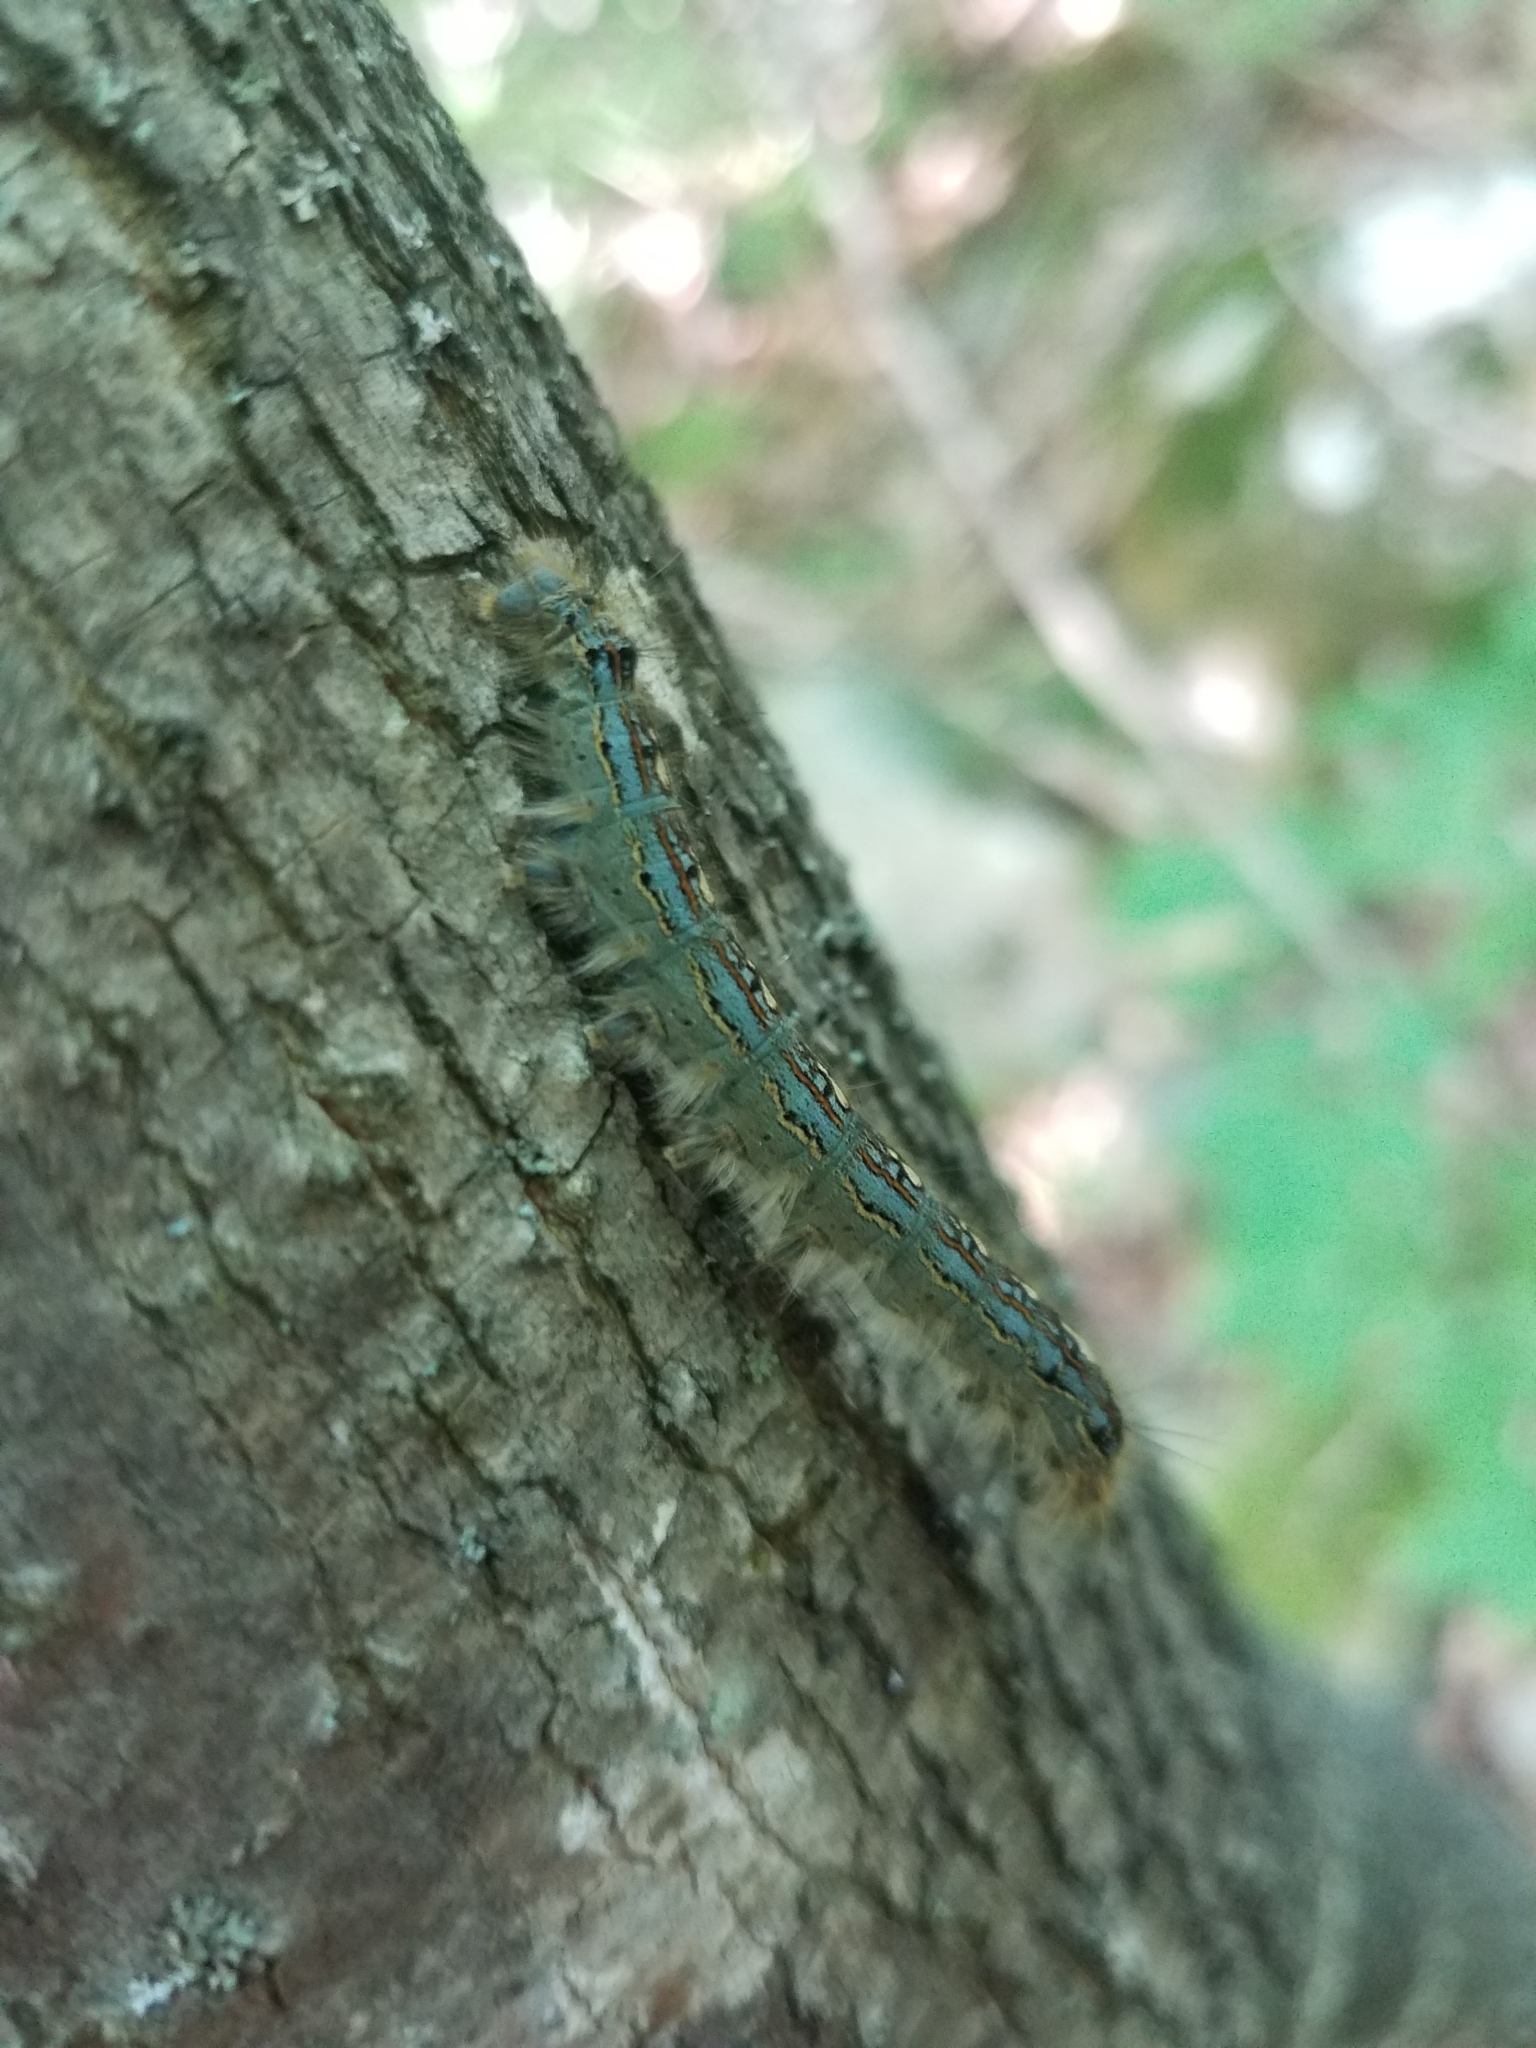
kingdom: Animalia
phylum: Arthropoda
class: Insecta
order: Lepidoptera
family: Lasiocampidae
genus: Malacosoma
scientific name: Malacosoma disstria
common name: Forest tent caterpillar
